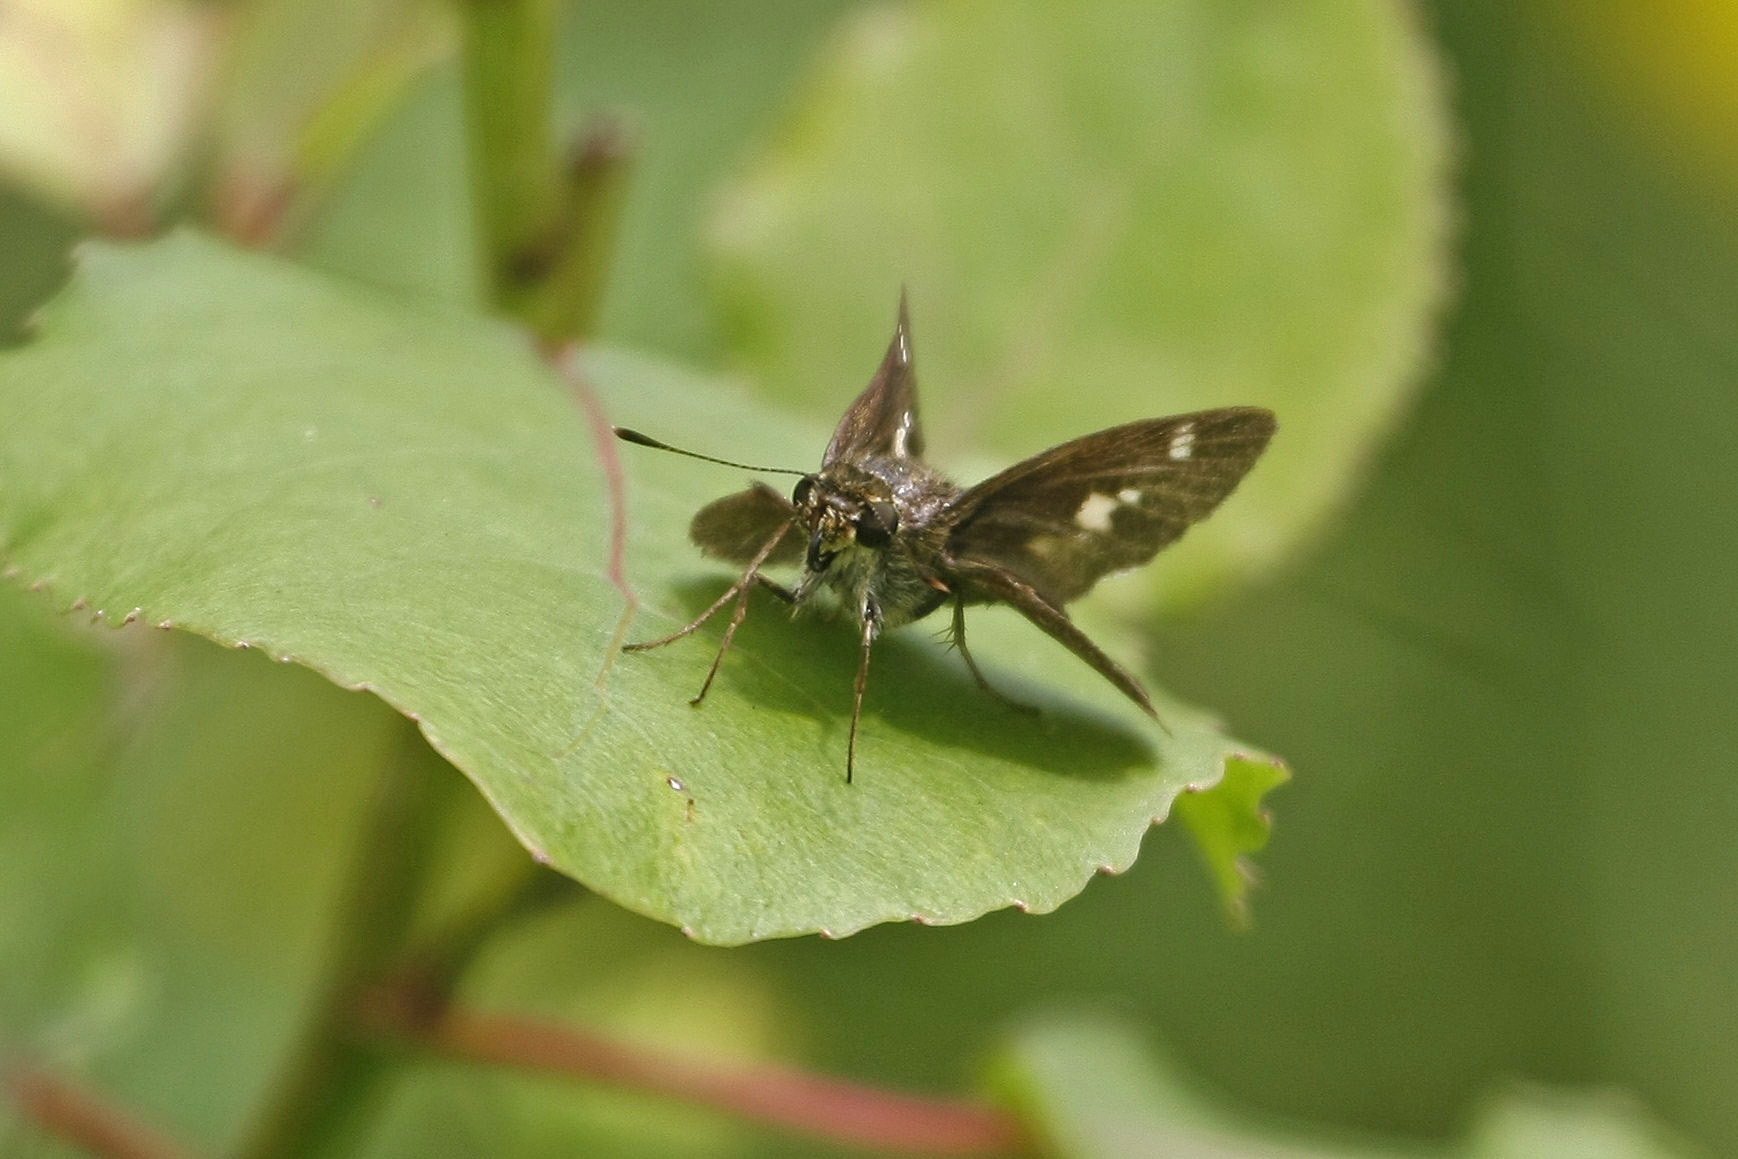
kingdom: Animalia
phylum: Arthropoda
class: Insecta
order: Lepidoptera
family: Hesperiidae
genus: Vernia
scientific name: Vernia verna
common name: Little glassywing
